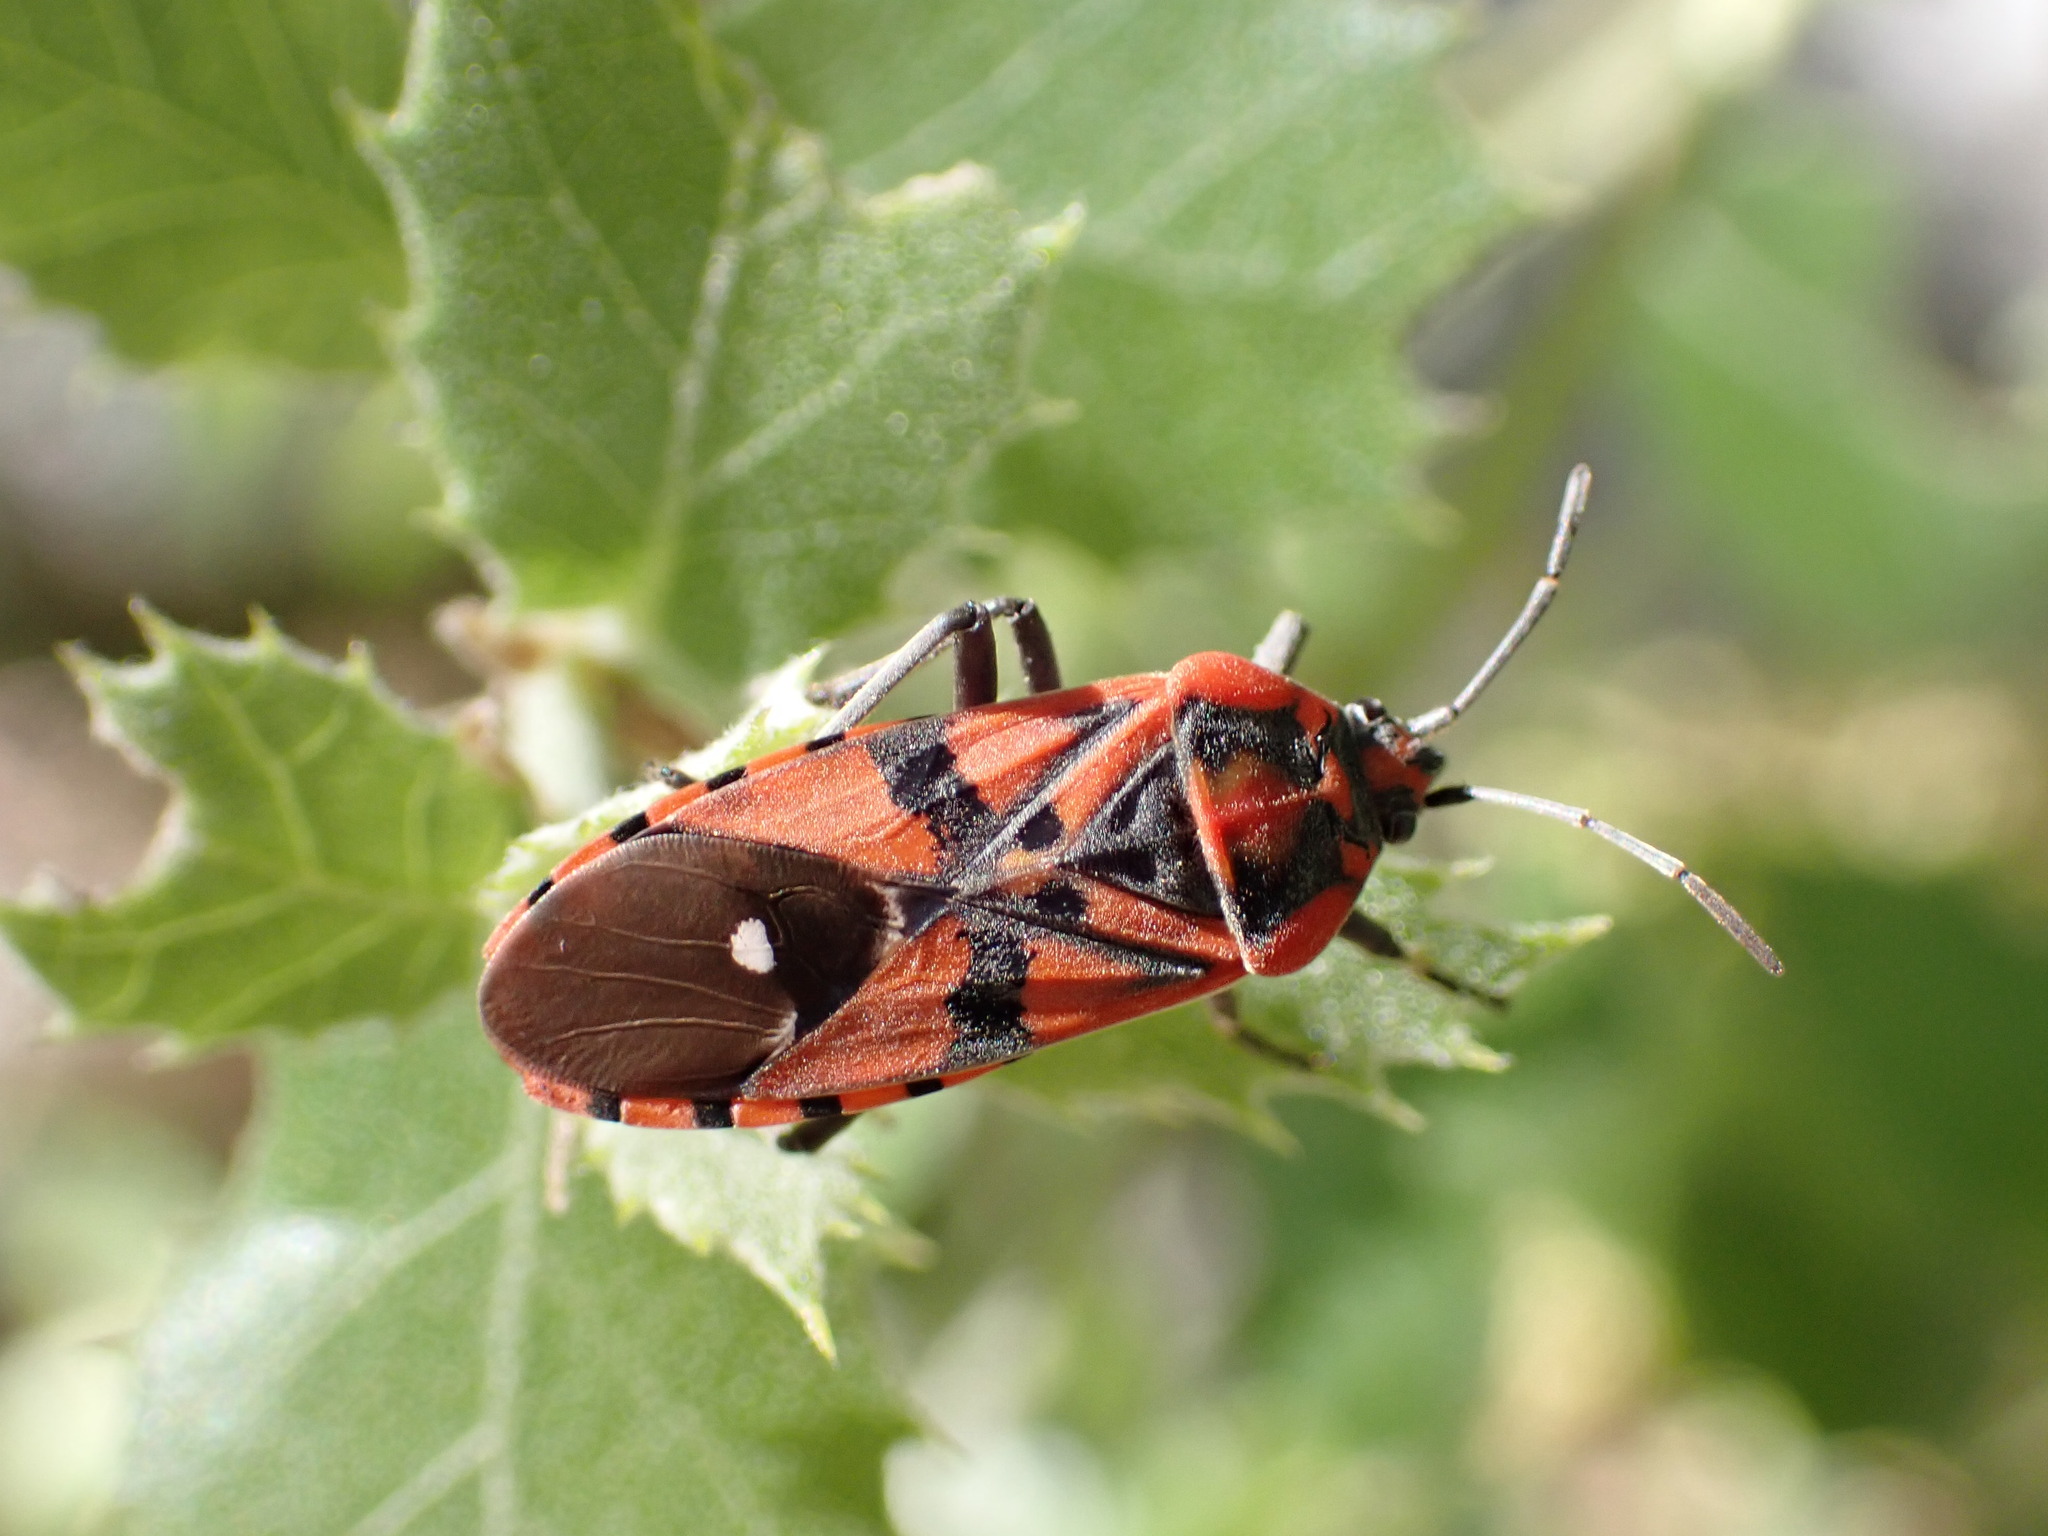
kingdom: Animalia
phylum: Arthropoda
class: Insecta
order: Hemiptera
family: Lygaeidae
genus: Spilostethus
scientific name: Spilostethus pandurus
